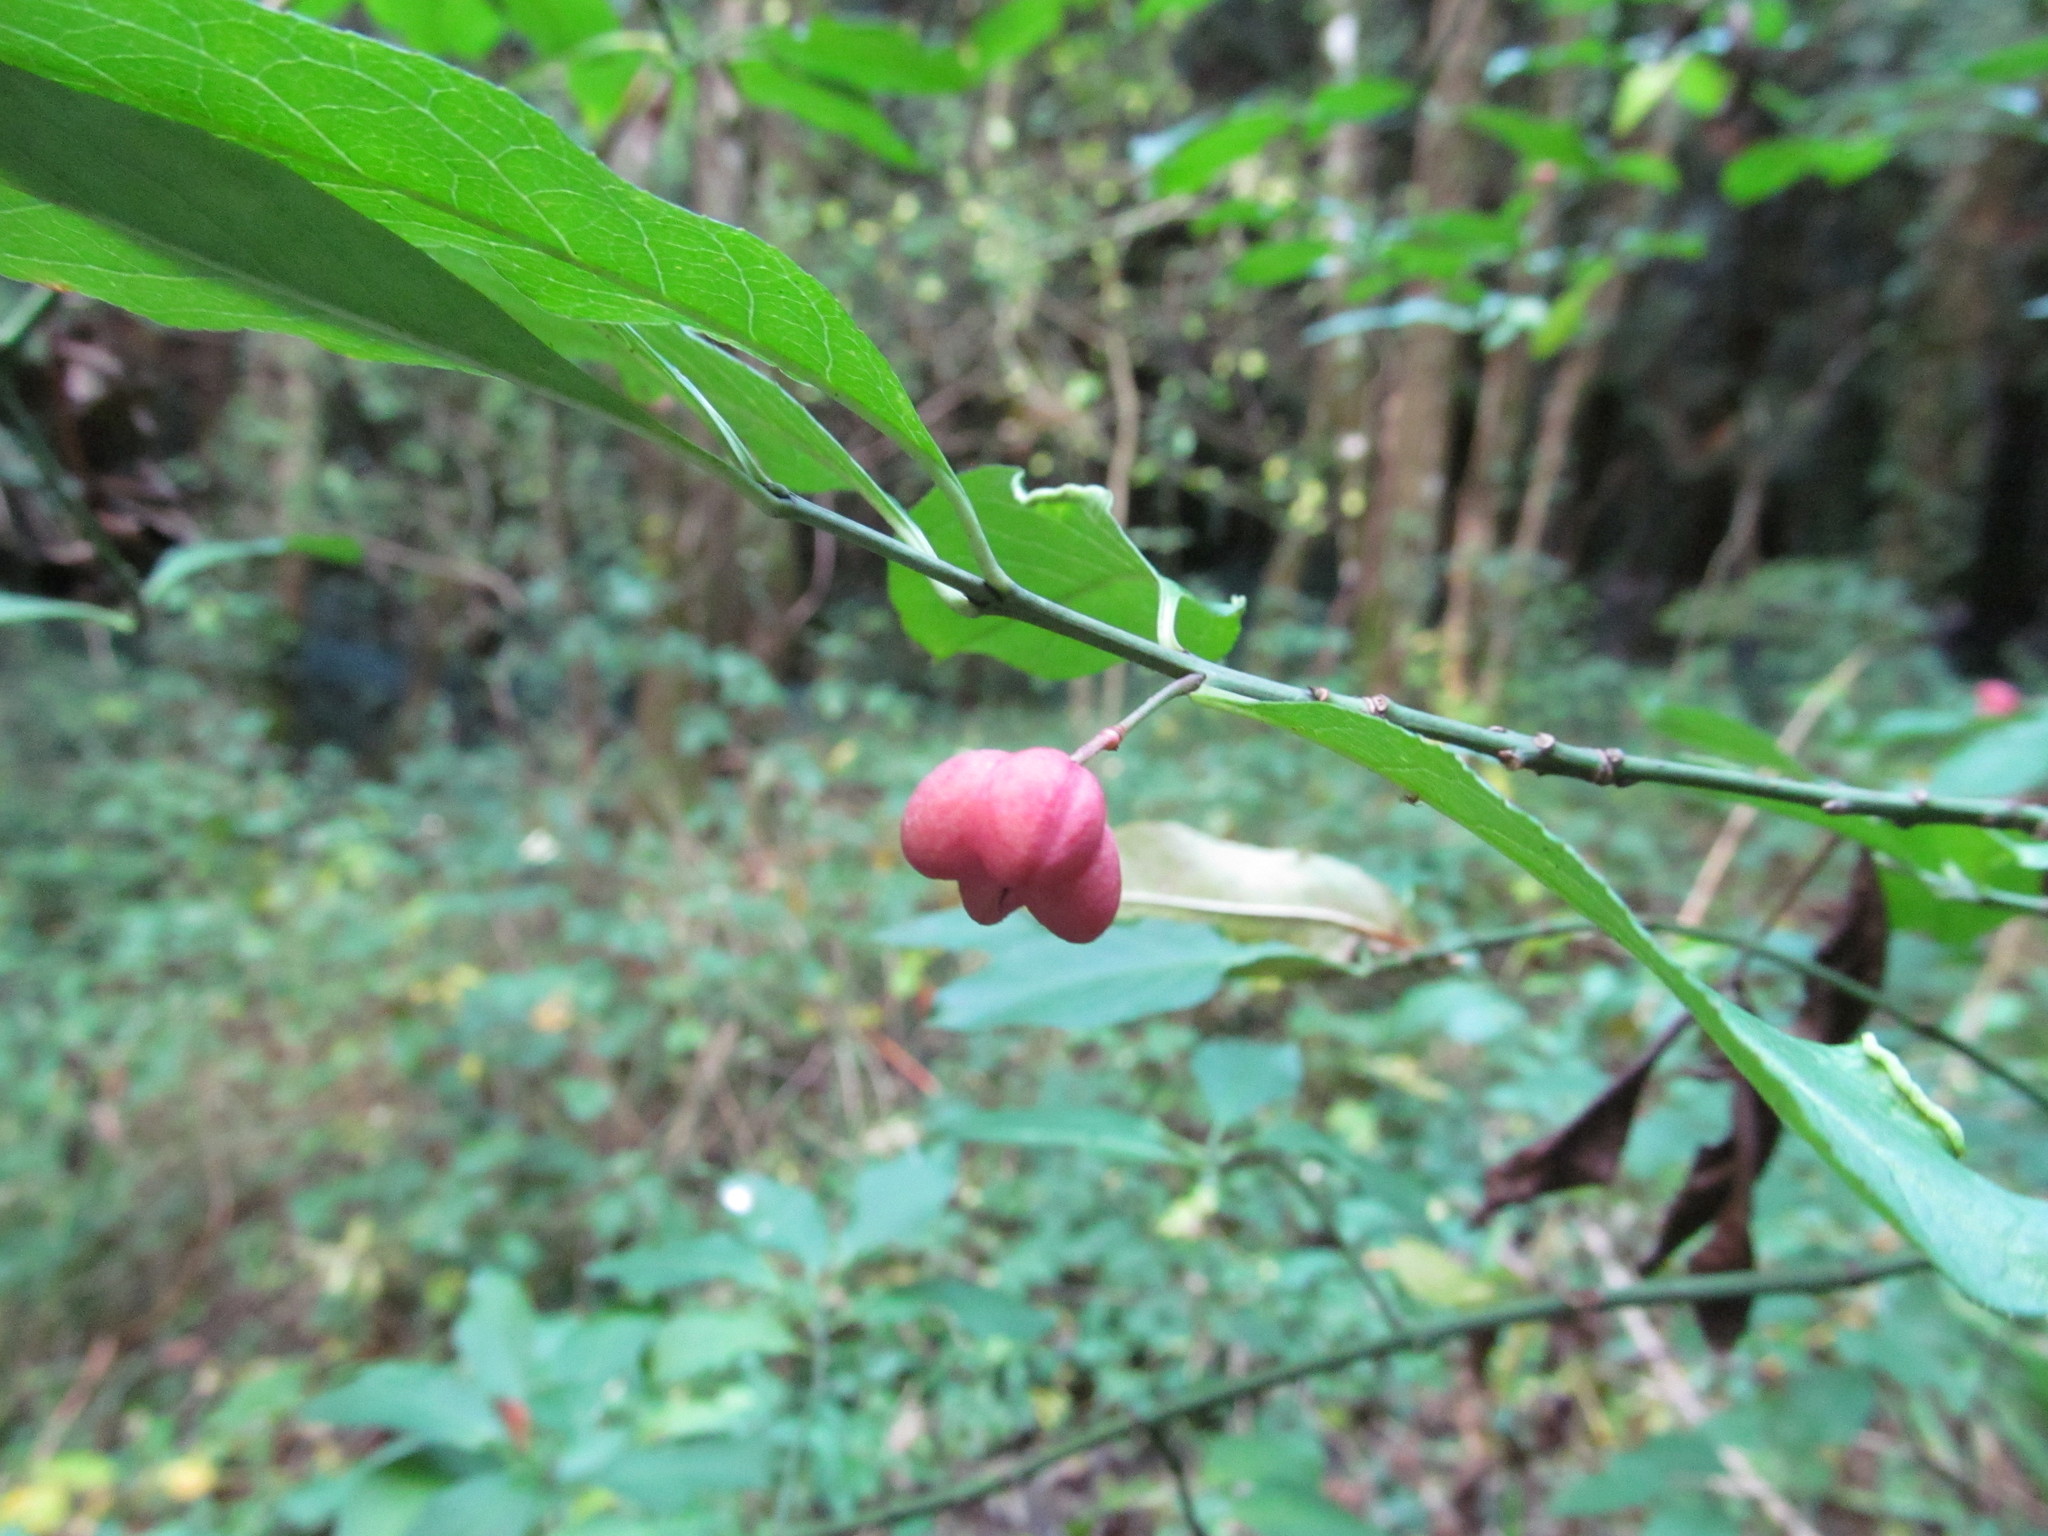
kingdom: Plantae
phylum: Tracheophyta
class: Magnoliopsida
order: Celastrales
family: Celastraceae
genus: Euonymus
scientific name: Euonymus europaeus
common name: Spindle
